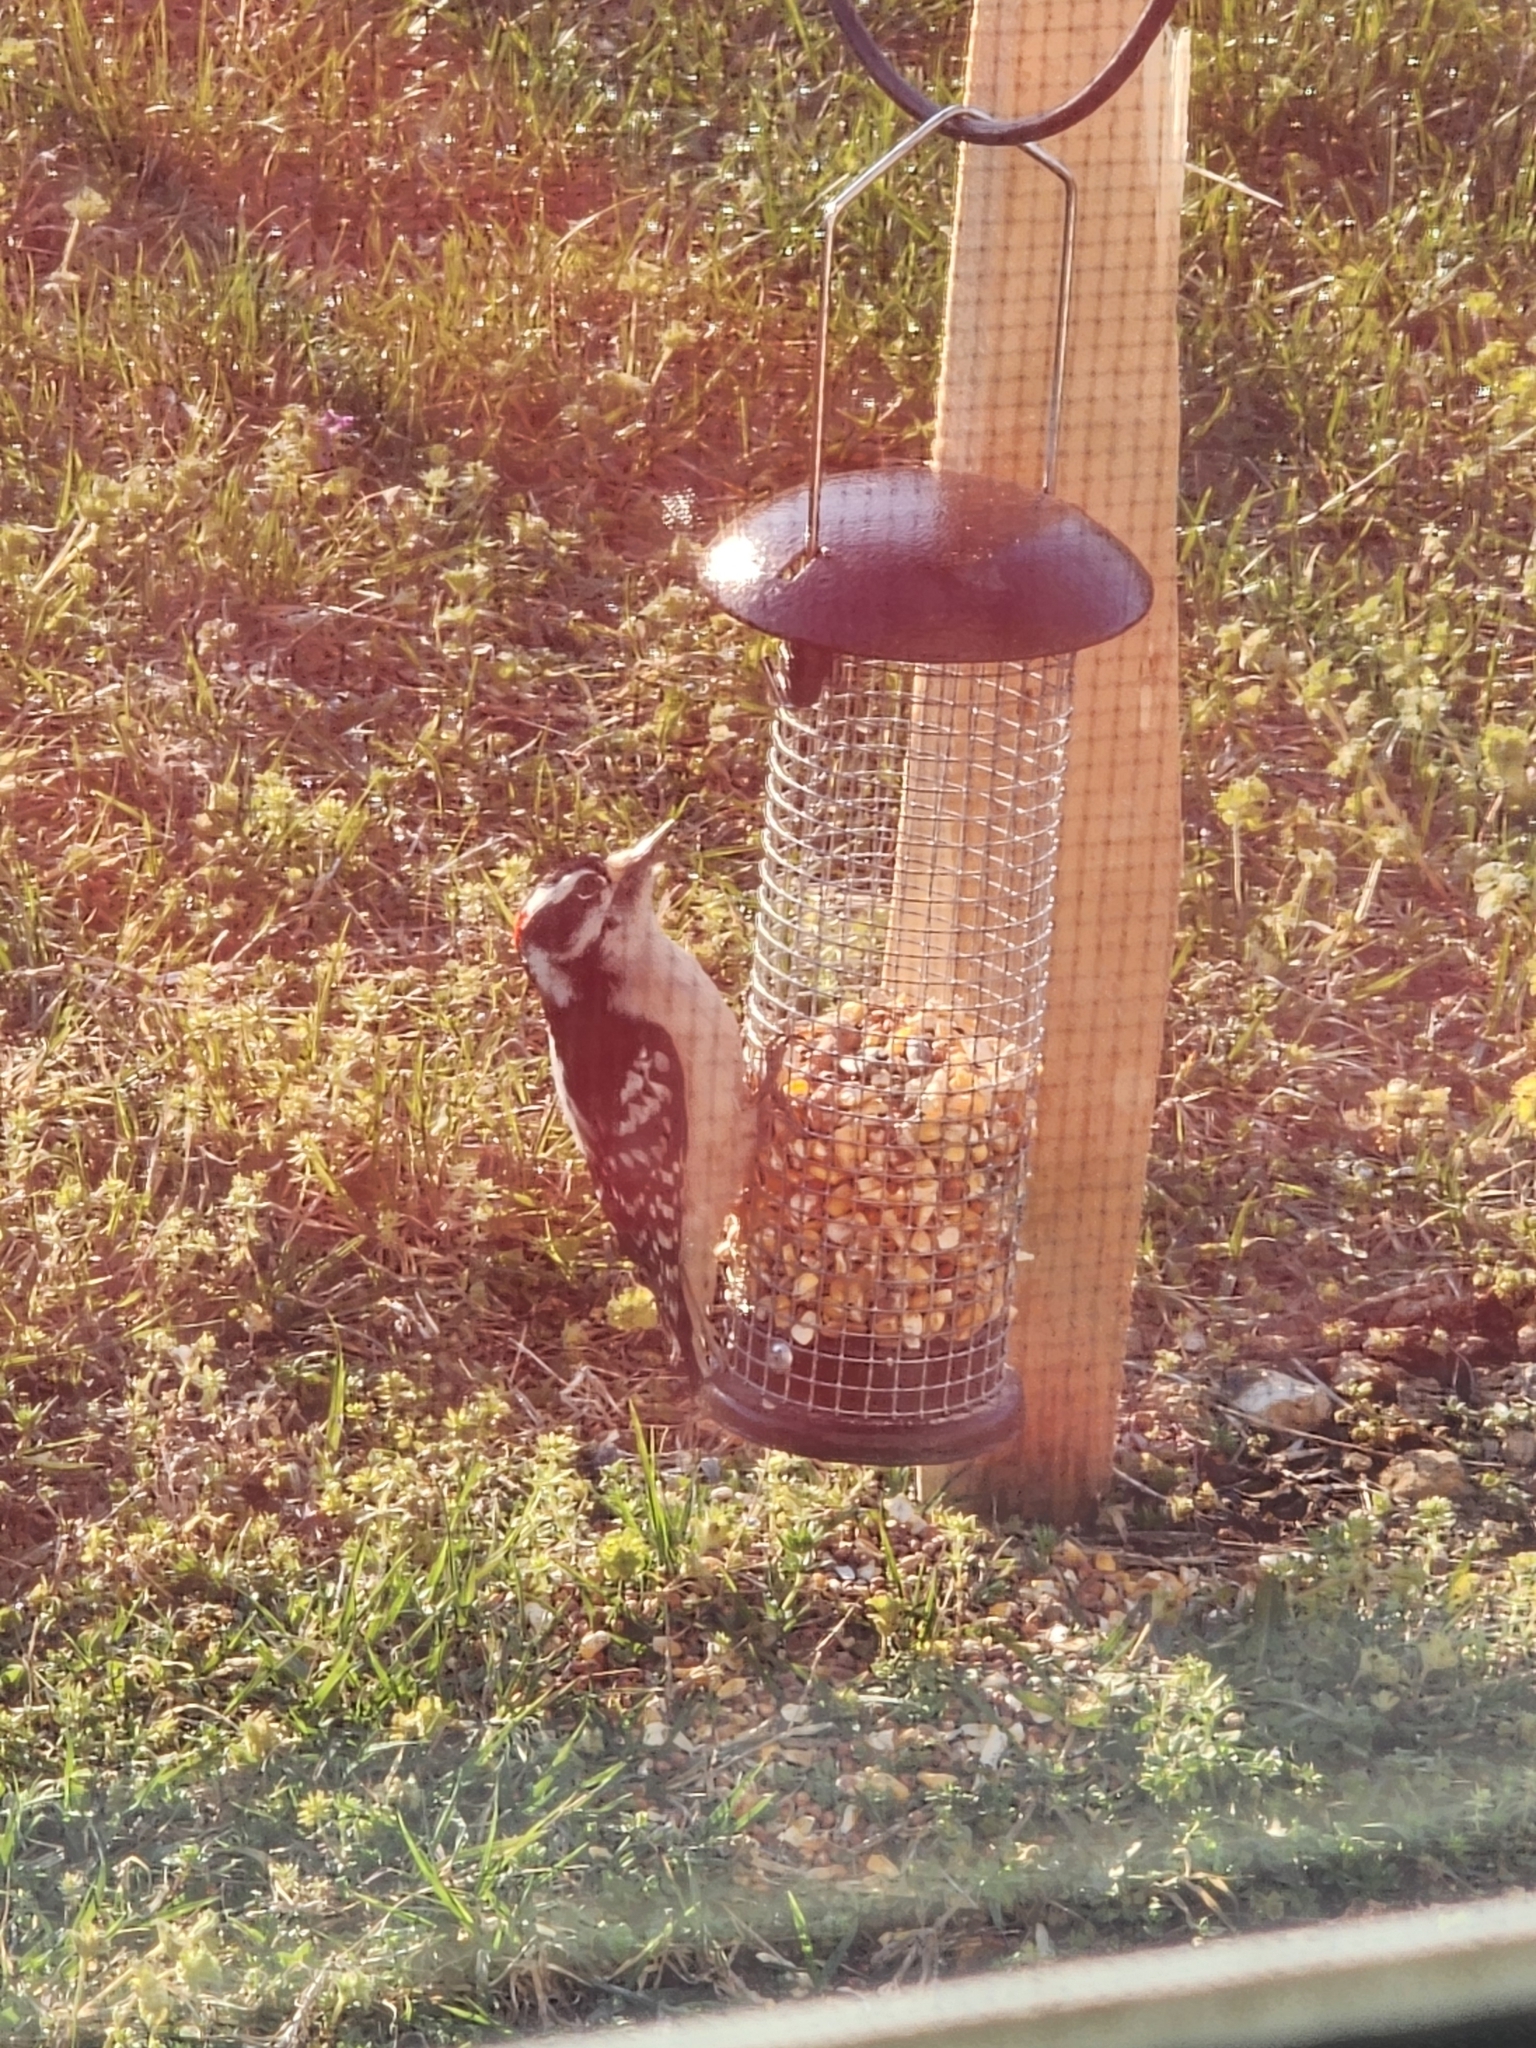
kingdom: Animalia
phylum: Chordata
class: Aves
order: Piciformes
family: Picidae
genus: Dryobates
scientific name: Dryobates pubescens
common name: Downy woodpecker
